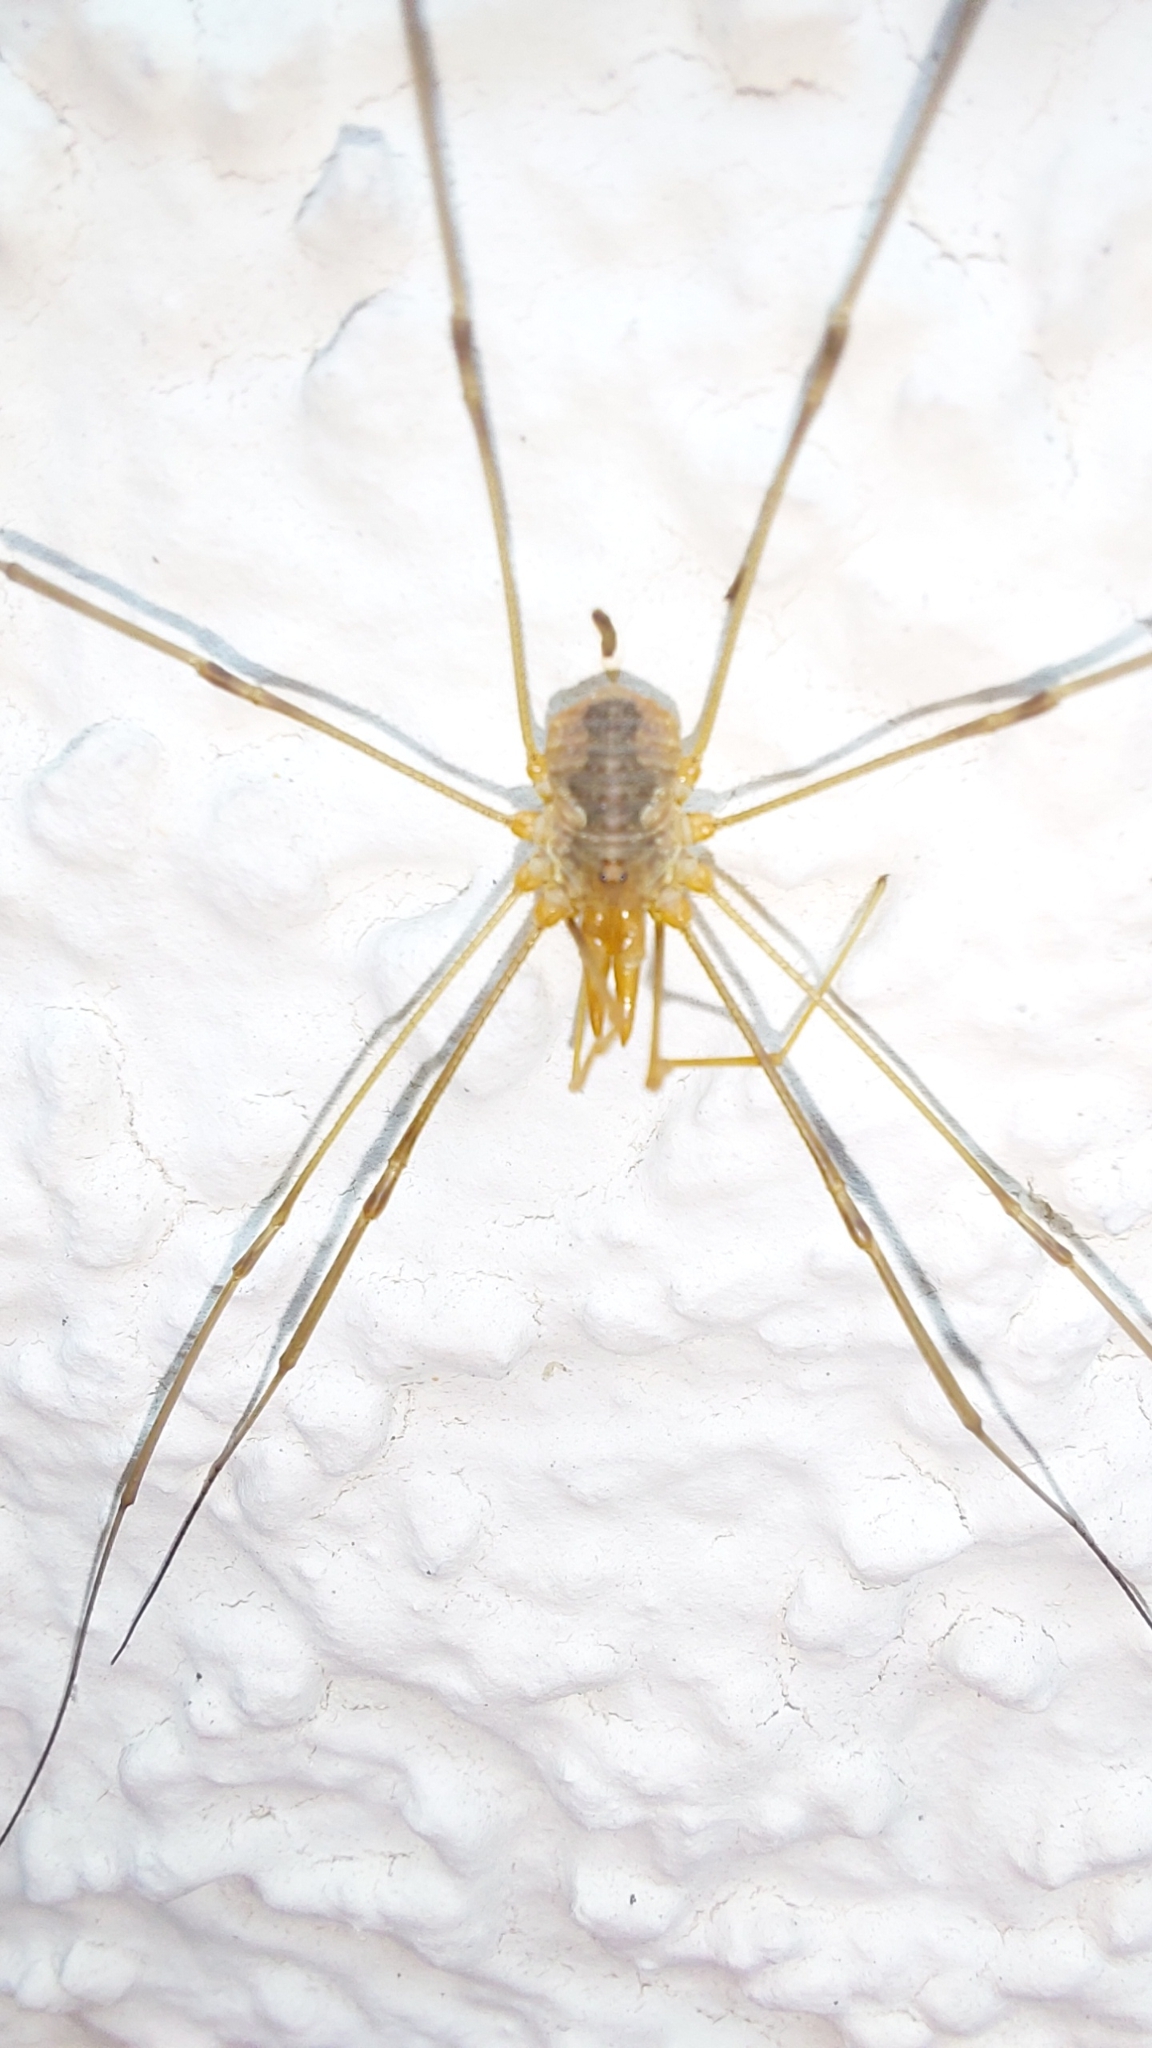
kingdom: Animalia
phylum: Arthropoda
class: Arachnida
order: Opiliones
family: Phalangiidae
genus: Phalangium
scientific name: Phalangium opilio
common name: Daddy longleg
